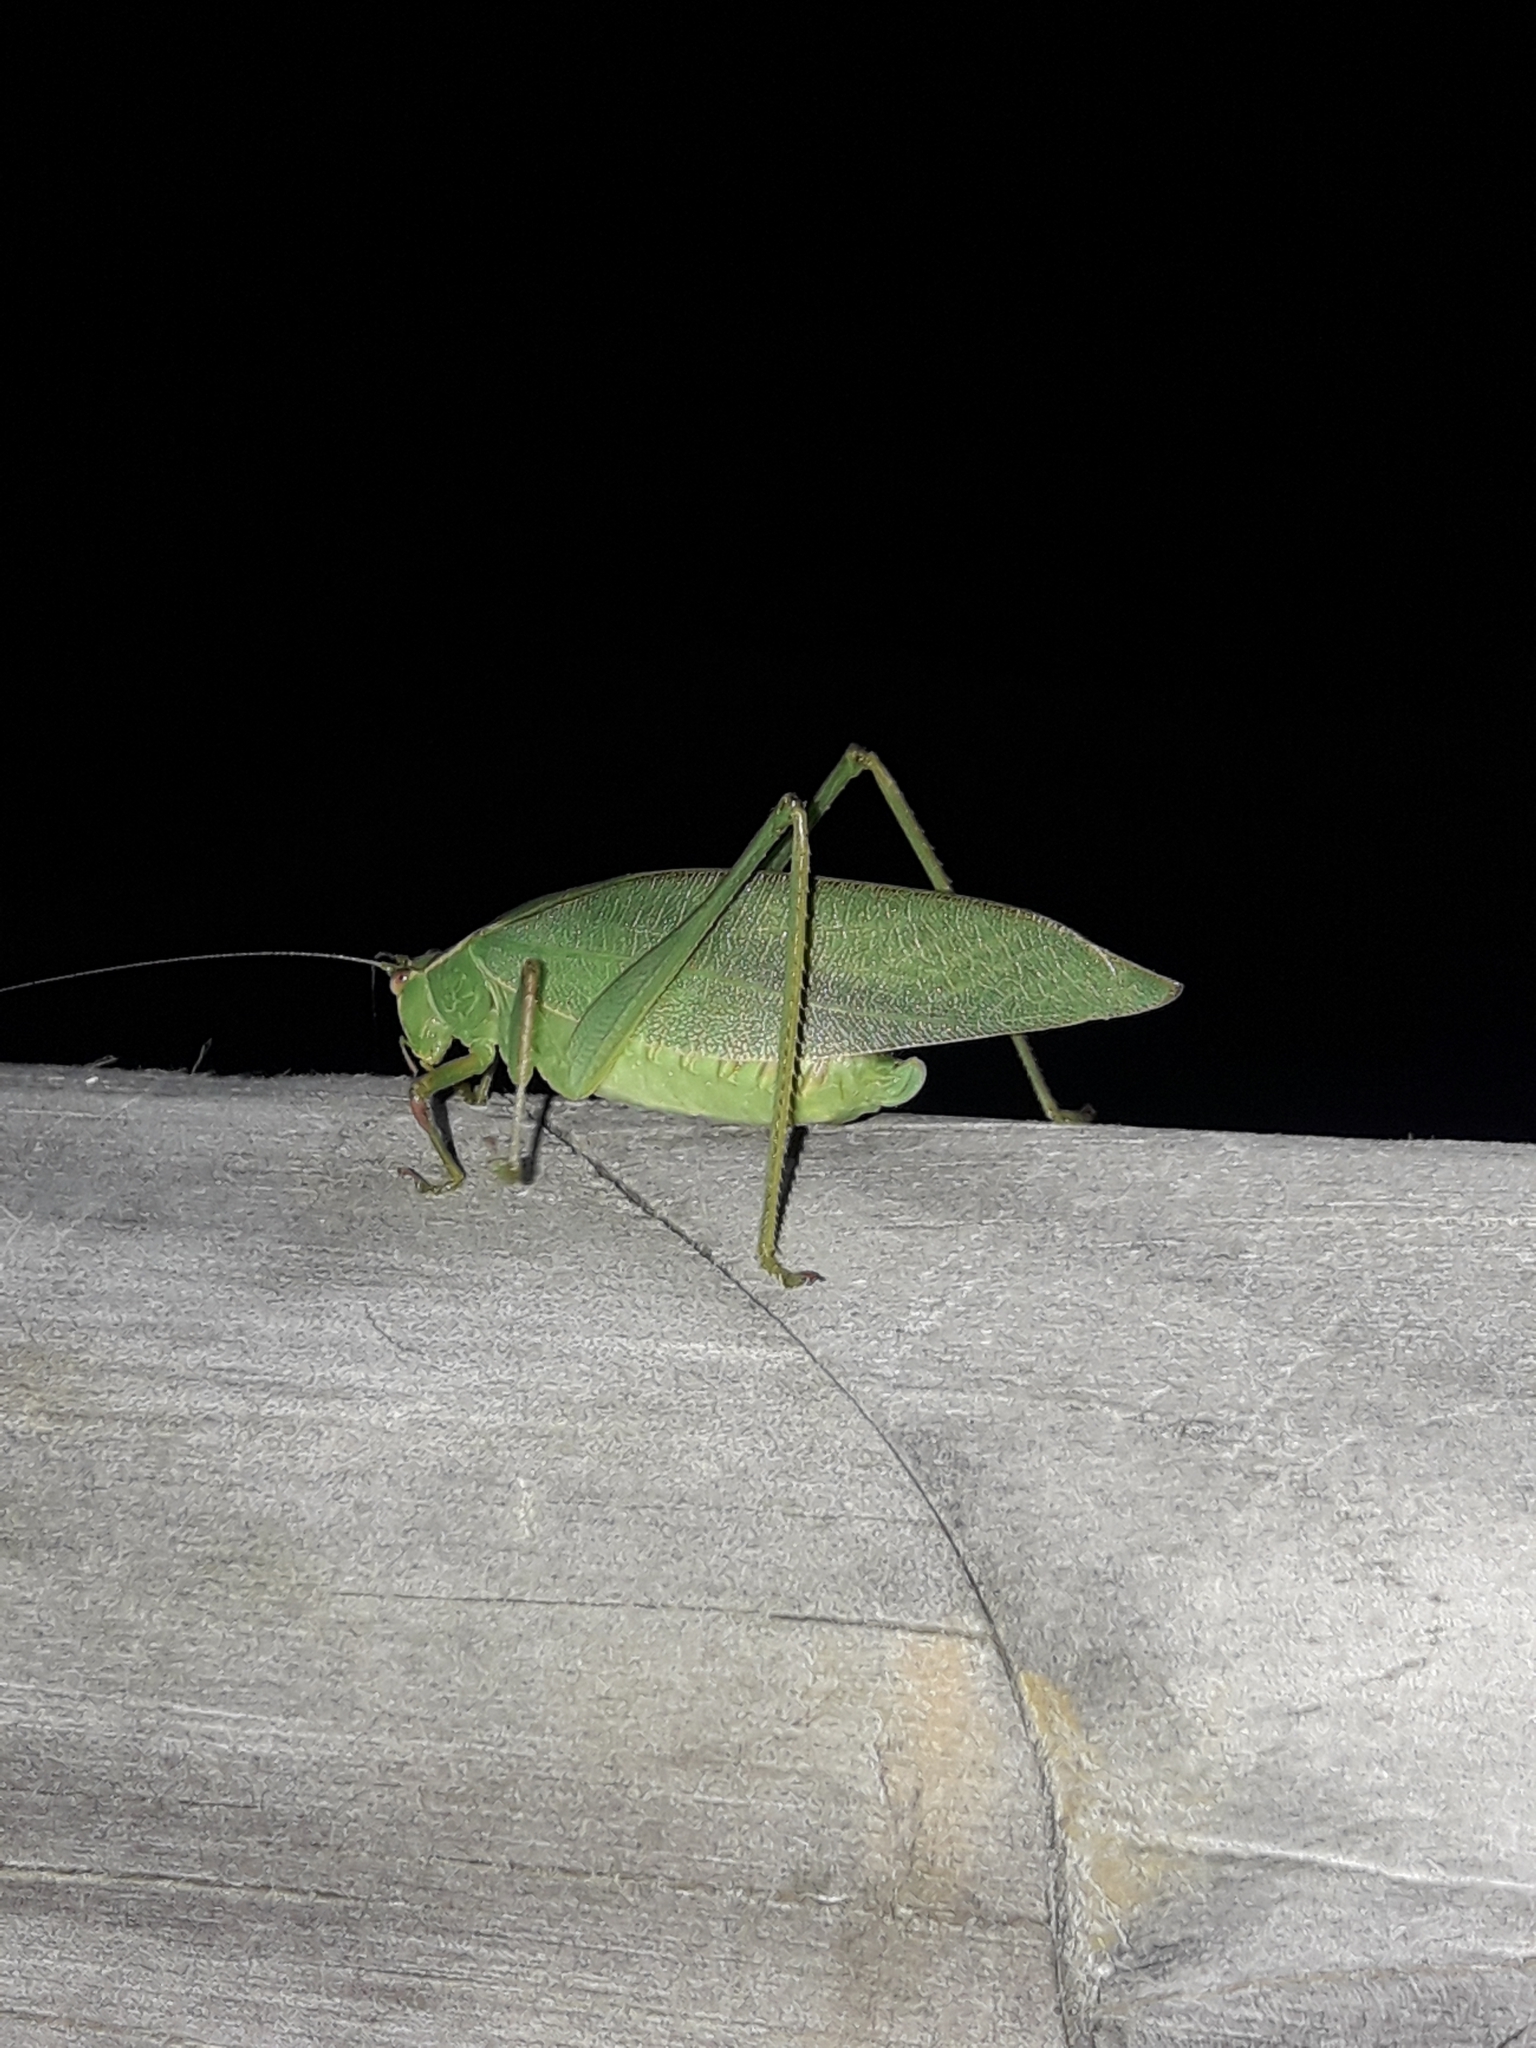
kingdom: Animalia
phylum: Arthropoda
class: Insecta
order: Orthoptera
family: Tettigoniidae
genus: Caedicia
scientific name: Caedicia simplex
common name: Common garden katydid
